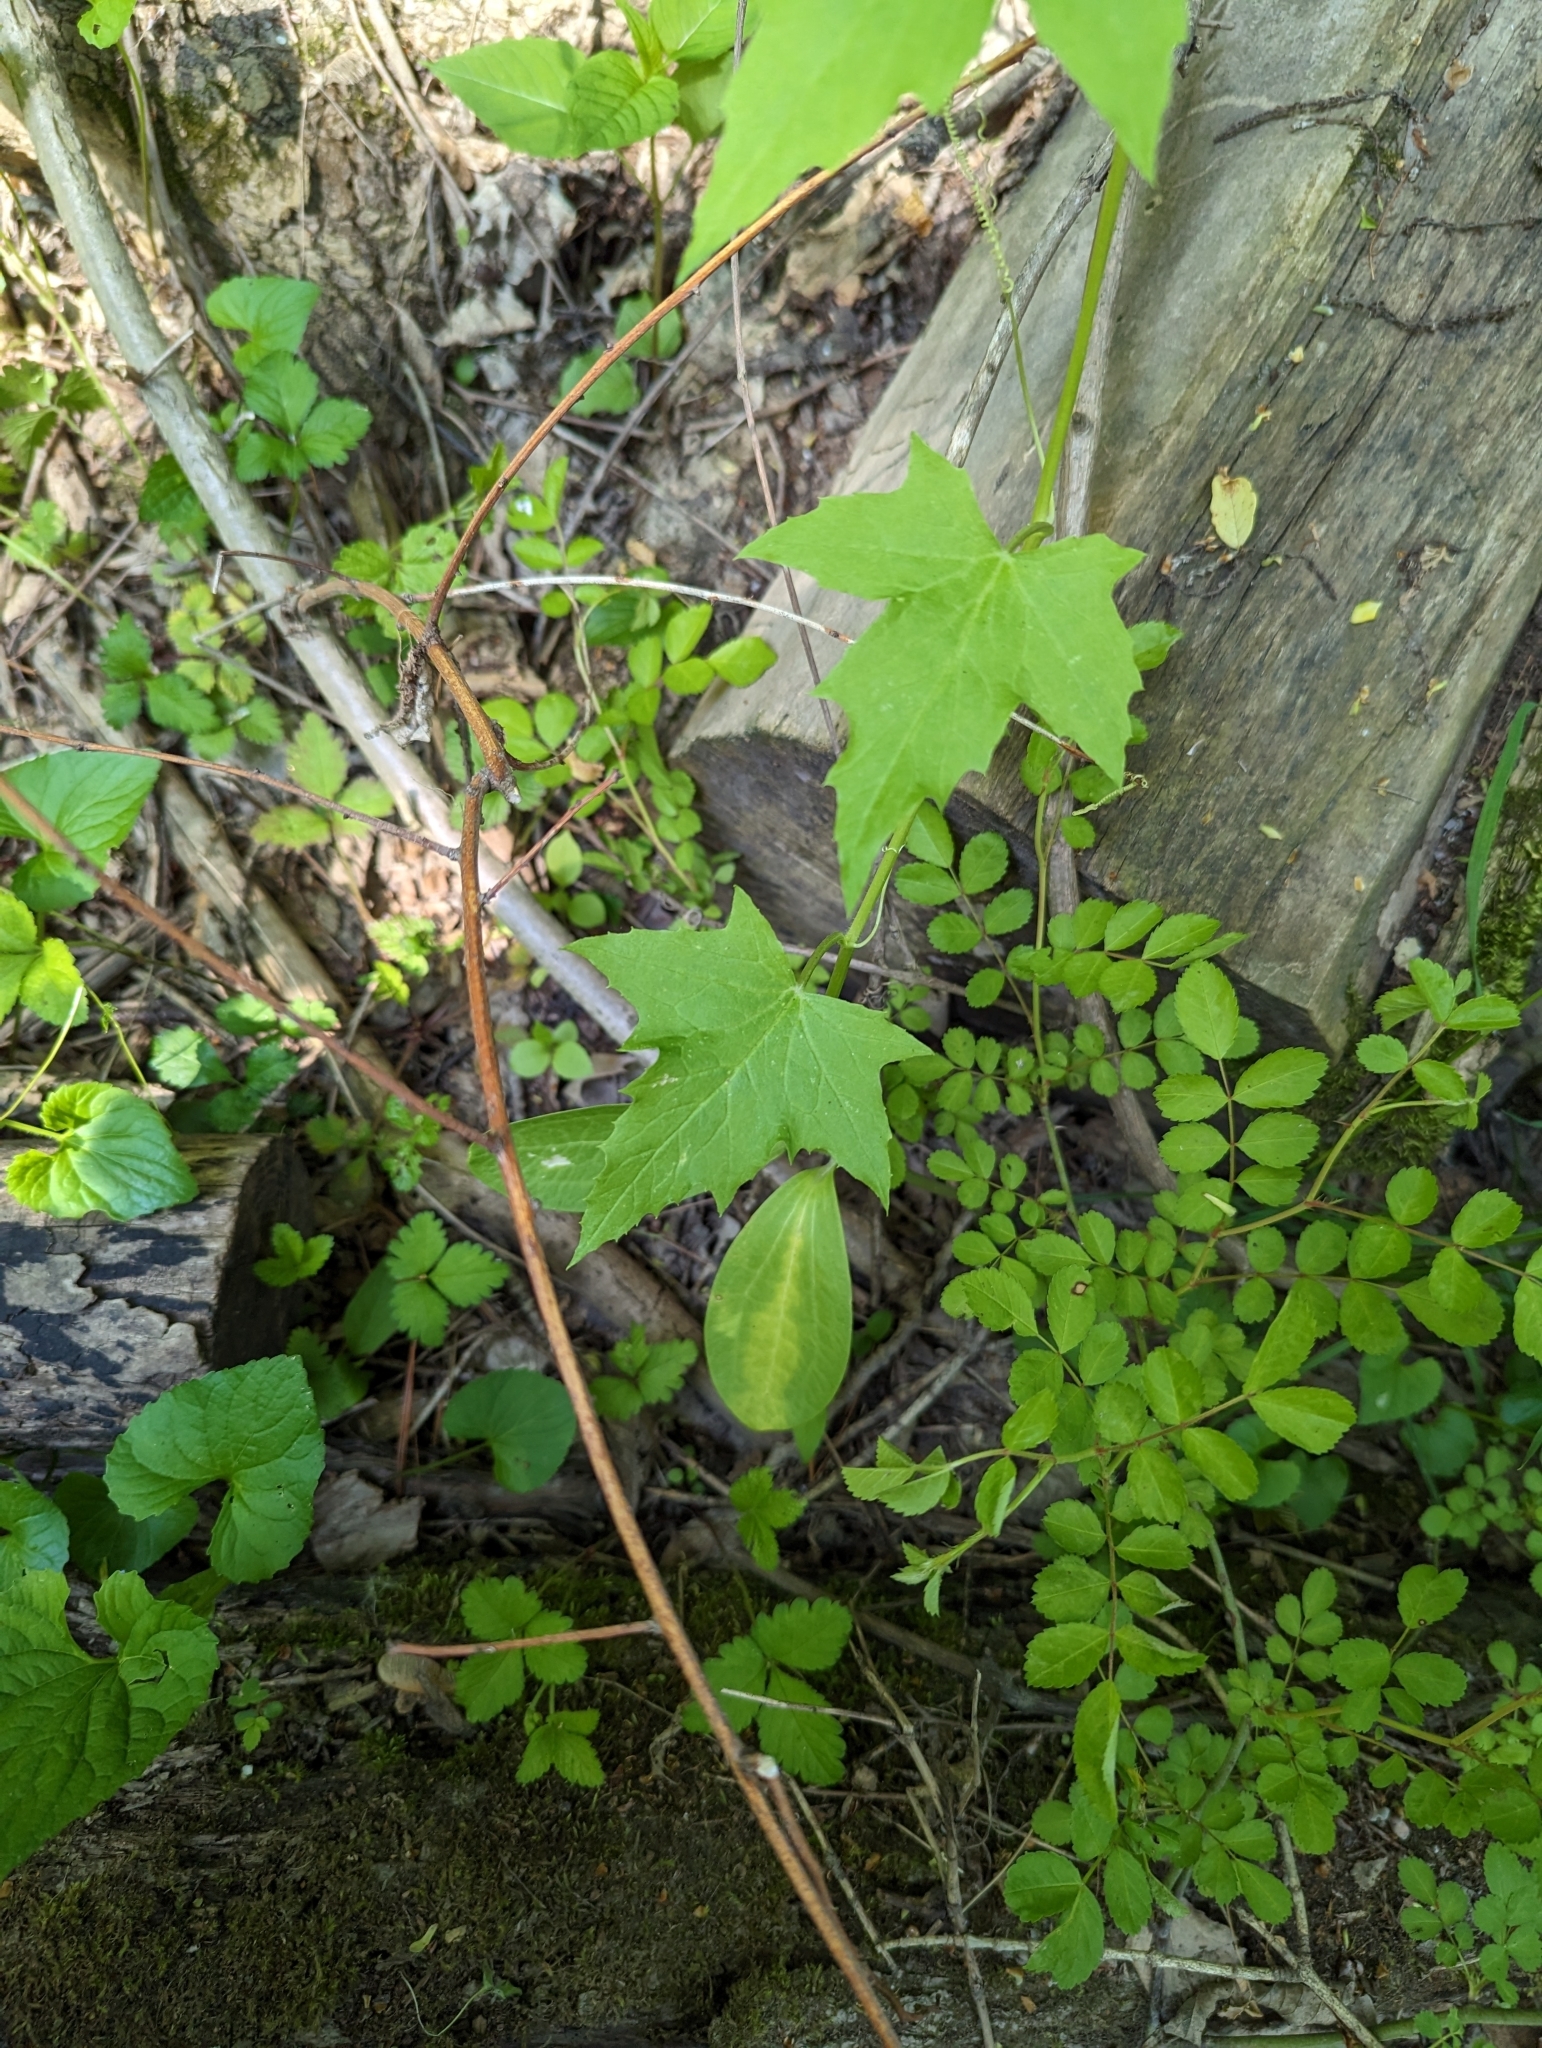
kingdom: Plantae
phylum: Tracheophyta
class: Magnoliopsida
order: Cucurbitales
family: Cucurbitaceae
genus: Echinocystis
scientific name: Echinocystis lobata
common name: Wild cucumber
